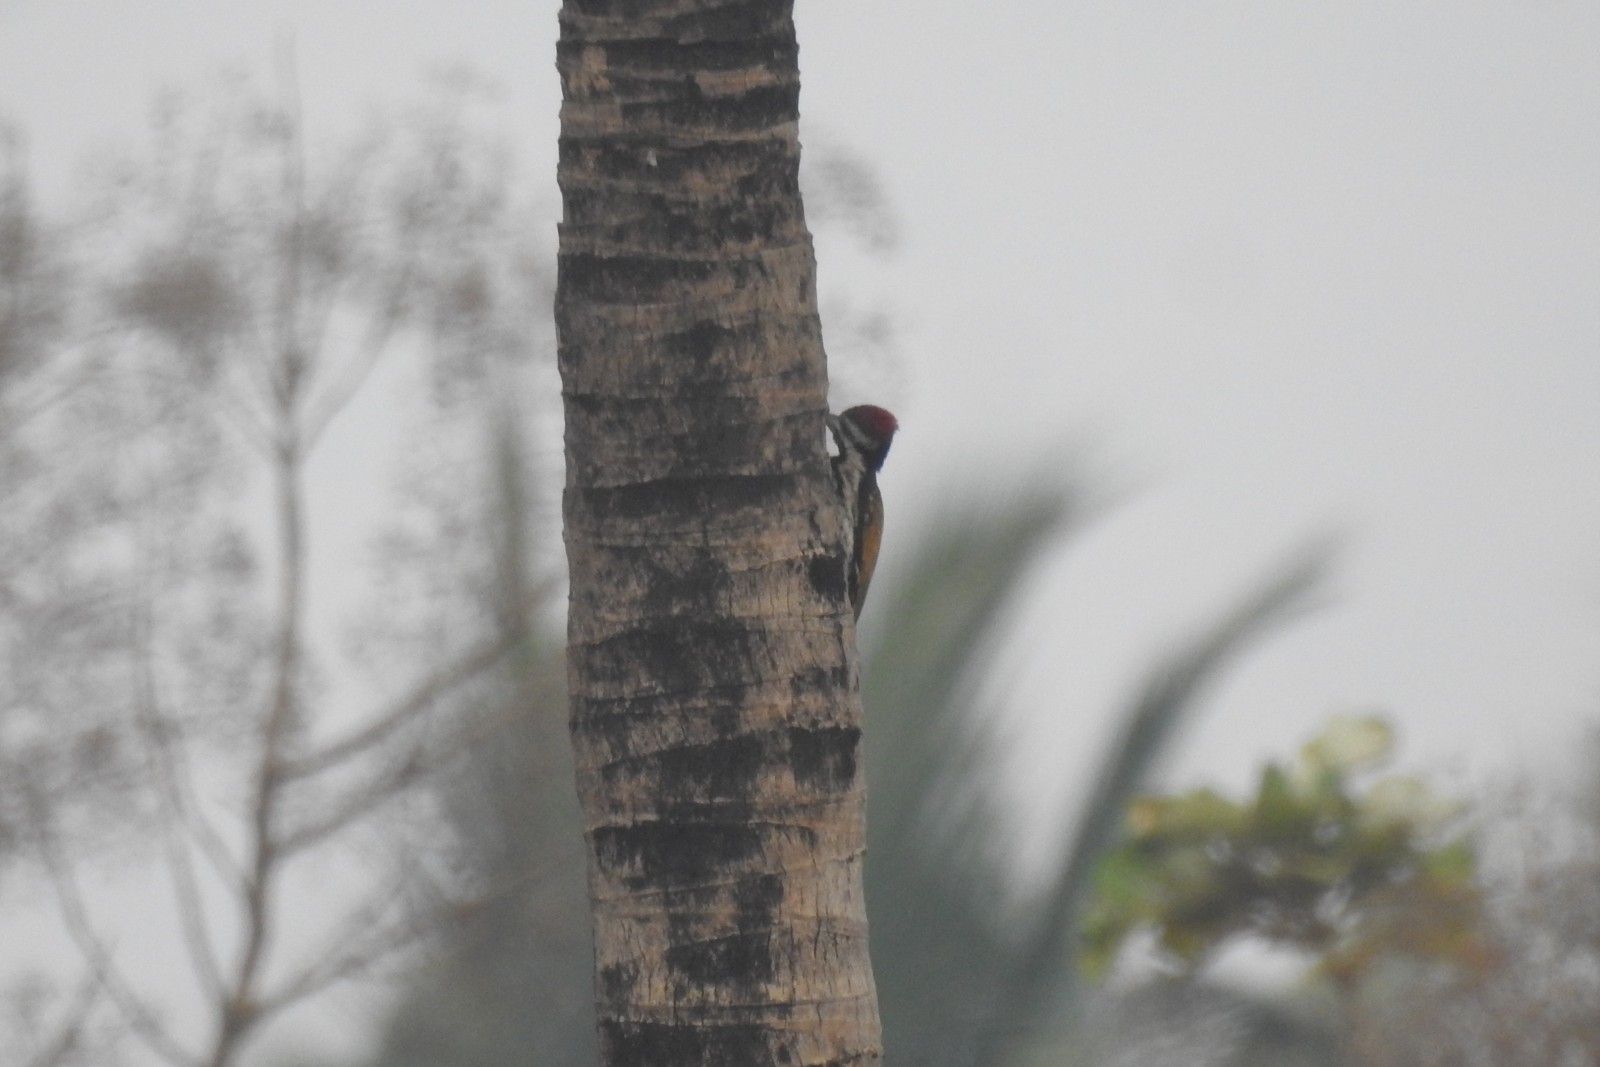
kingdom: Animalia
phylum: Chordata
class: Aves
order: Piciformes
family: Picidae
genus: Dinopium
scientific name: Dinopium benghalense
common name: Black-rumped flameback
